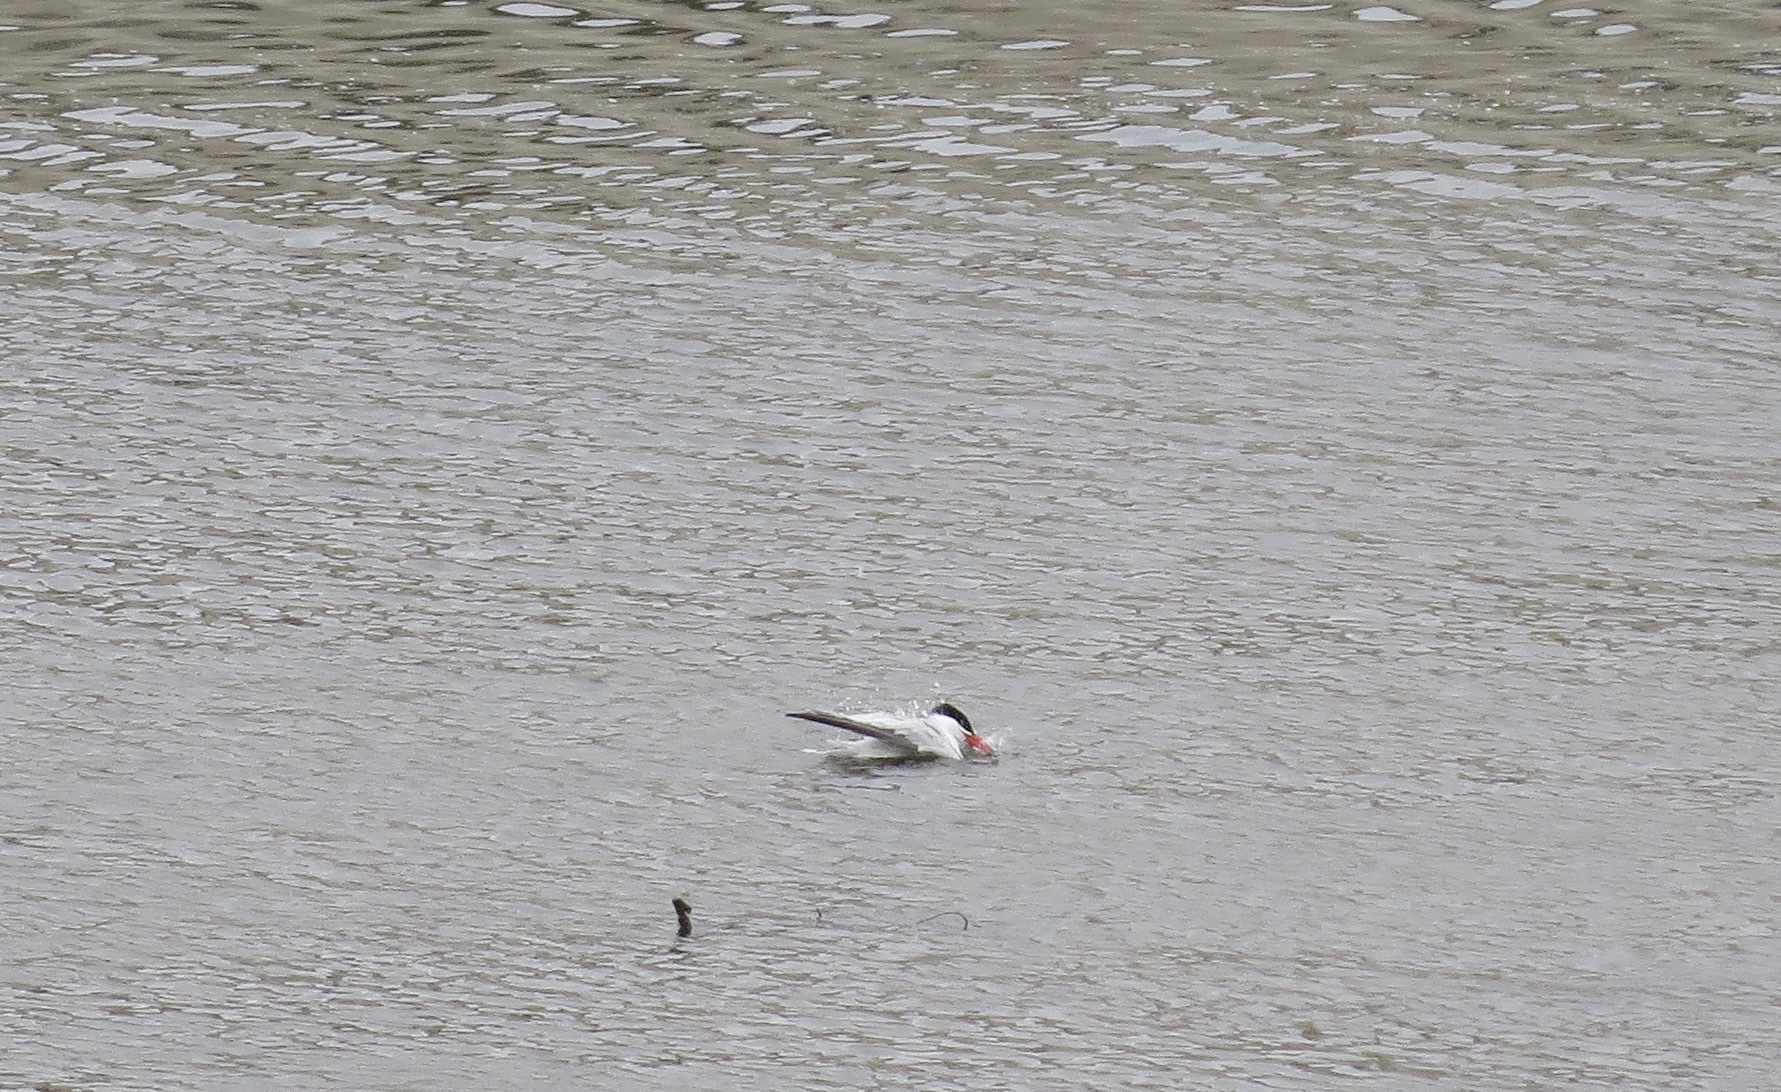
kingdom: Animalia
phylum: Chordata
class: Aves
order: Charadriiformes
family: Laridae
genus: Hydroprogne
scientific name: Hydroprogne caspia
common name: Caspian tern
